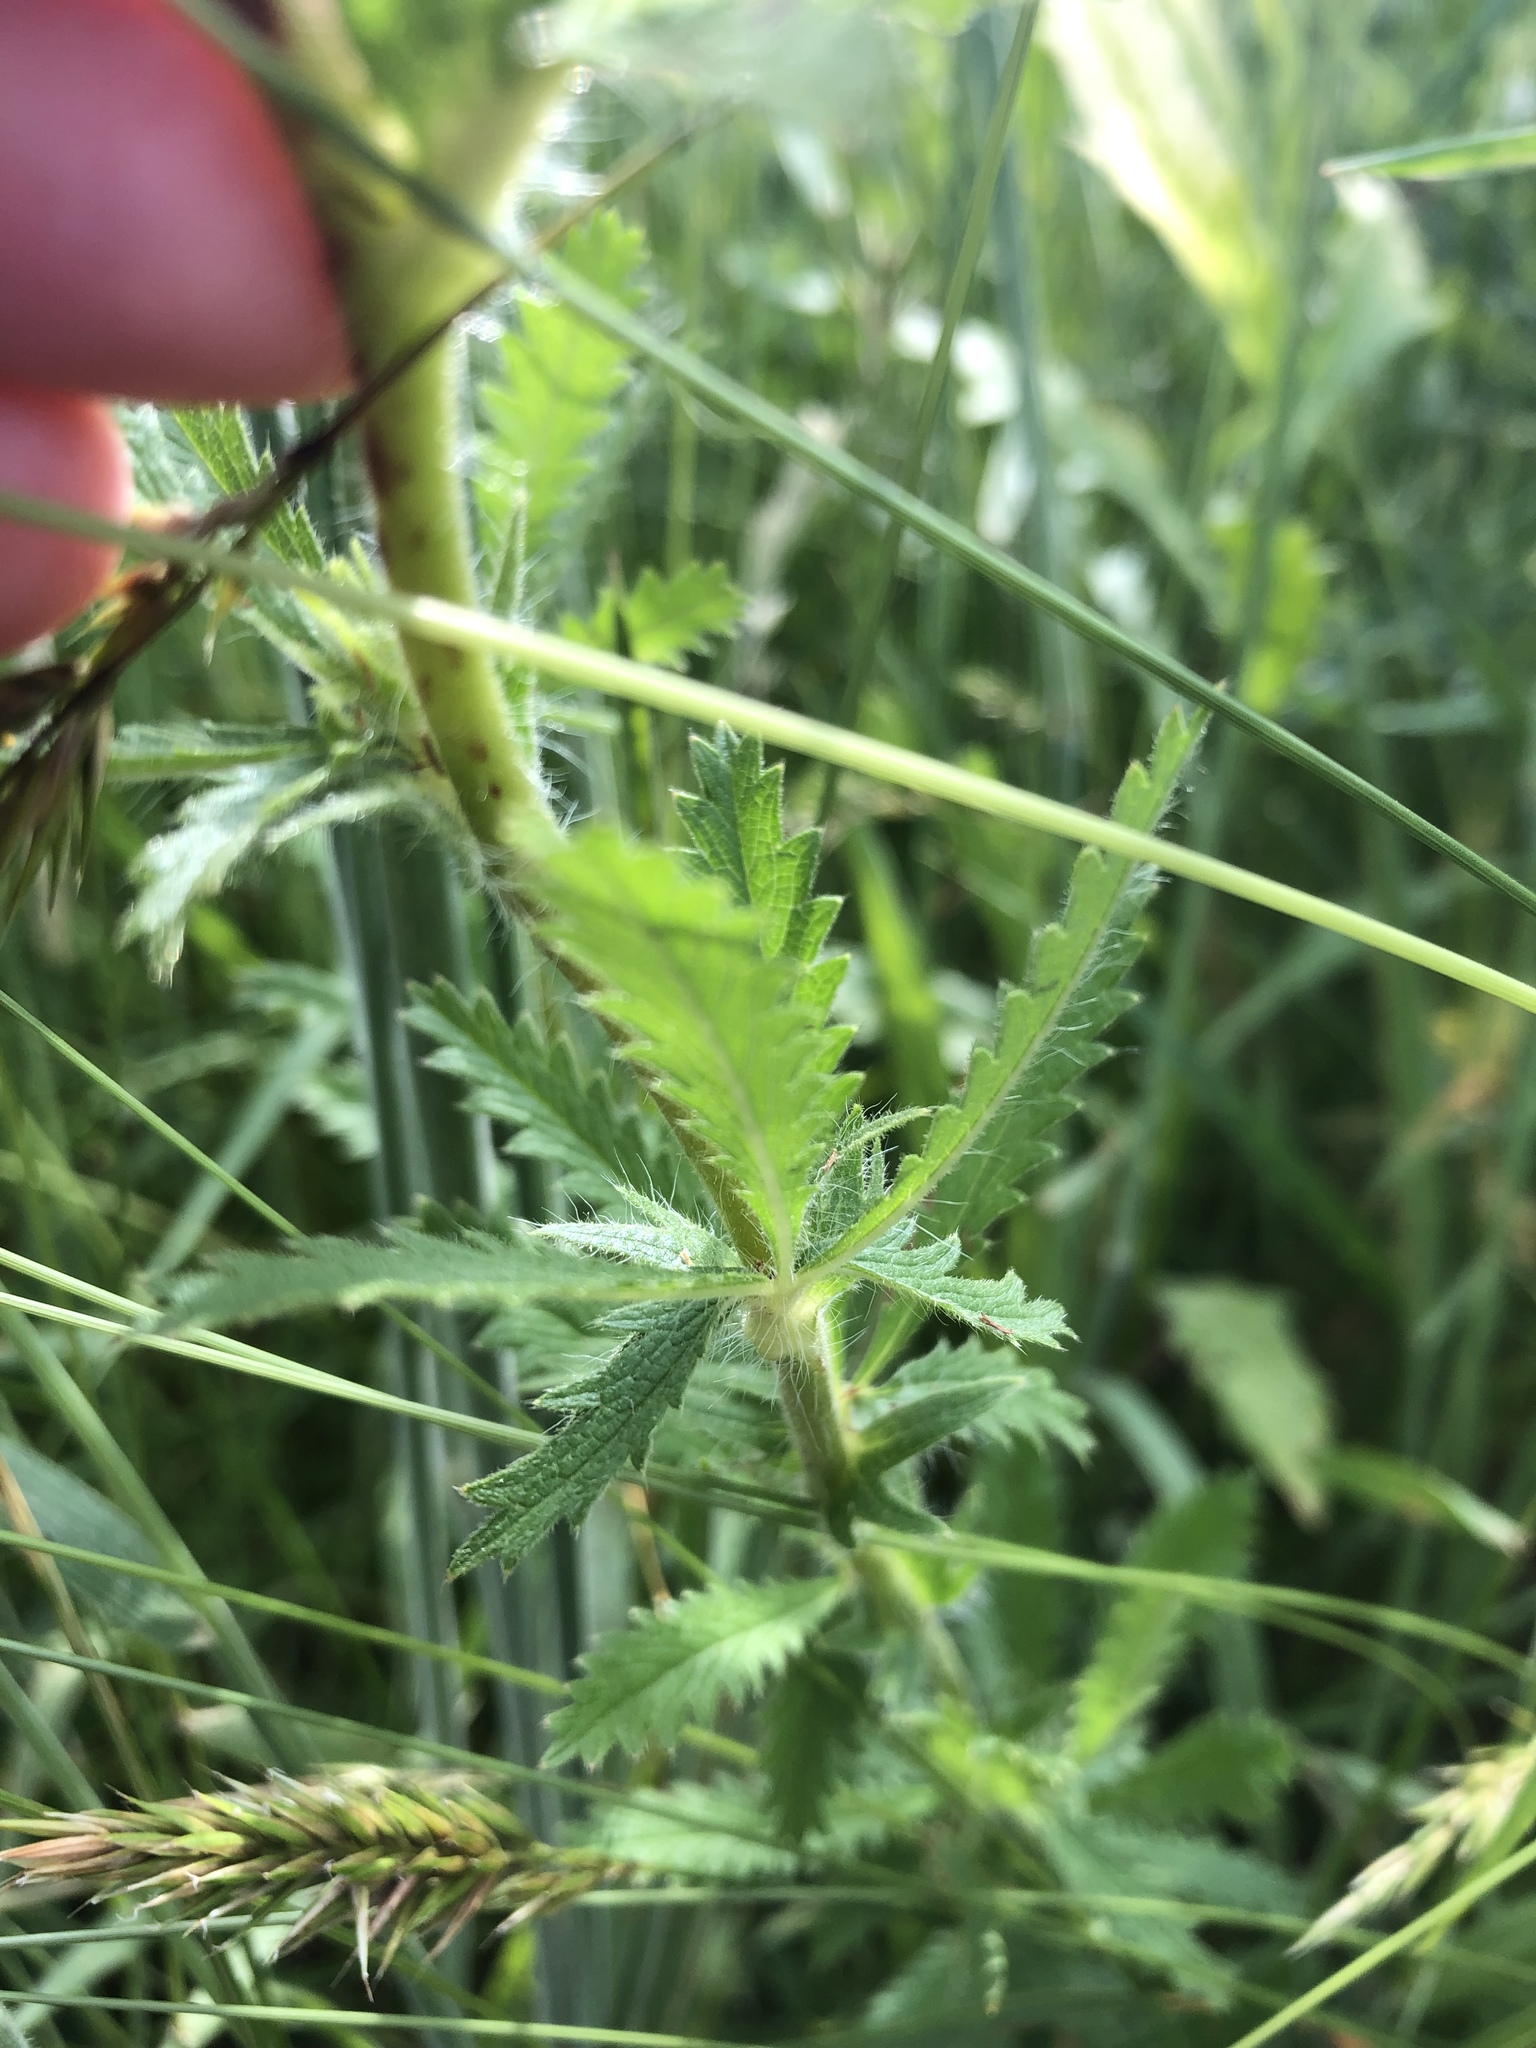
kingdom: Plantae
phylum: Tracheophyta
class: Magnoliopsida
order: Rosales
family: Rosaceae
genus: Potentilla
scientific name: Potentilla recta
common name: Sulphur cinquefoil
